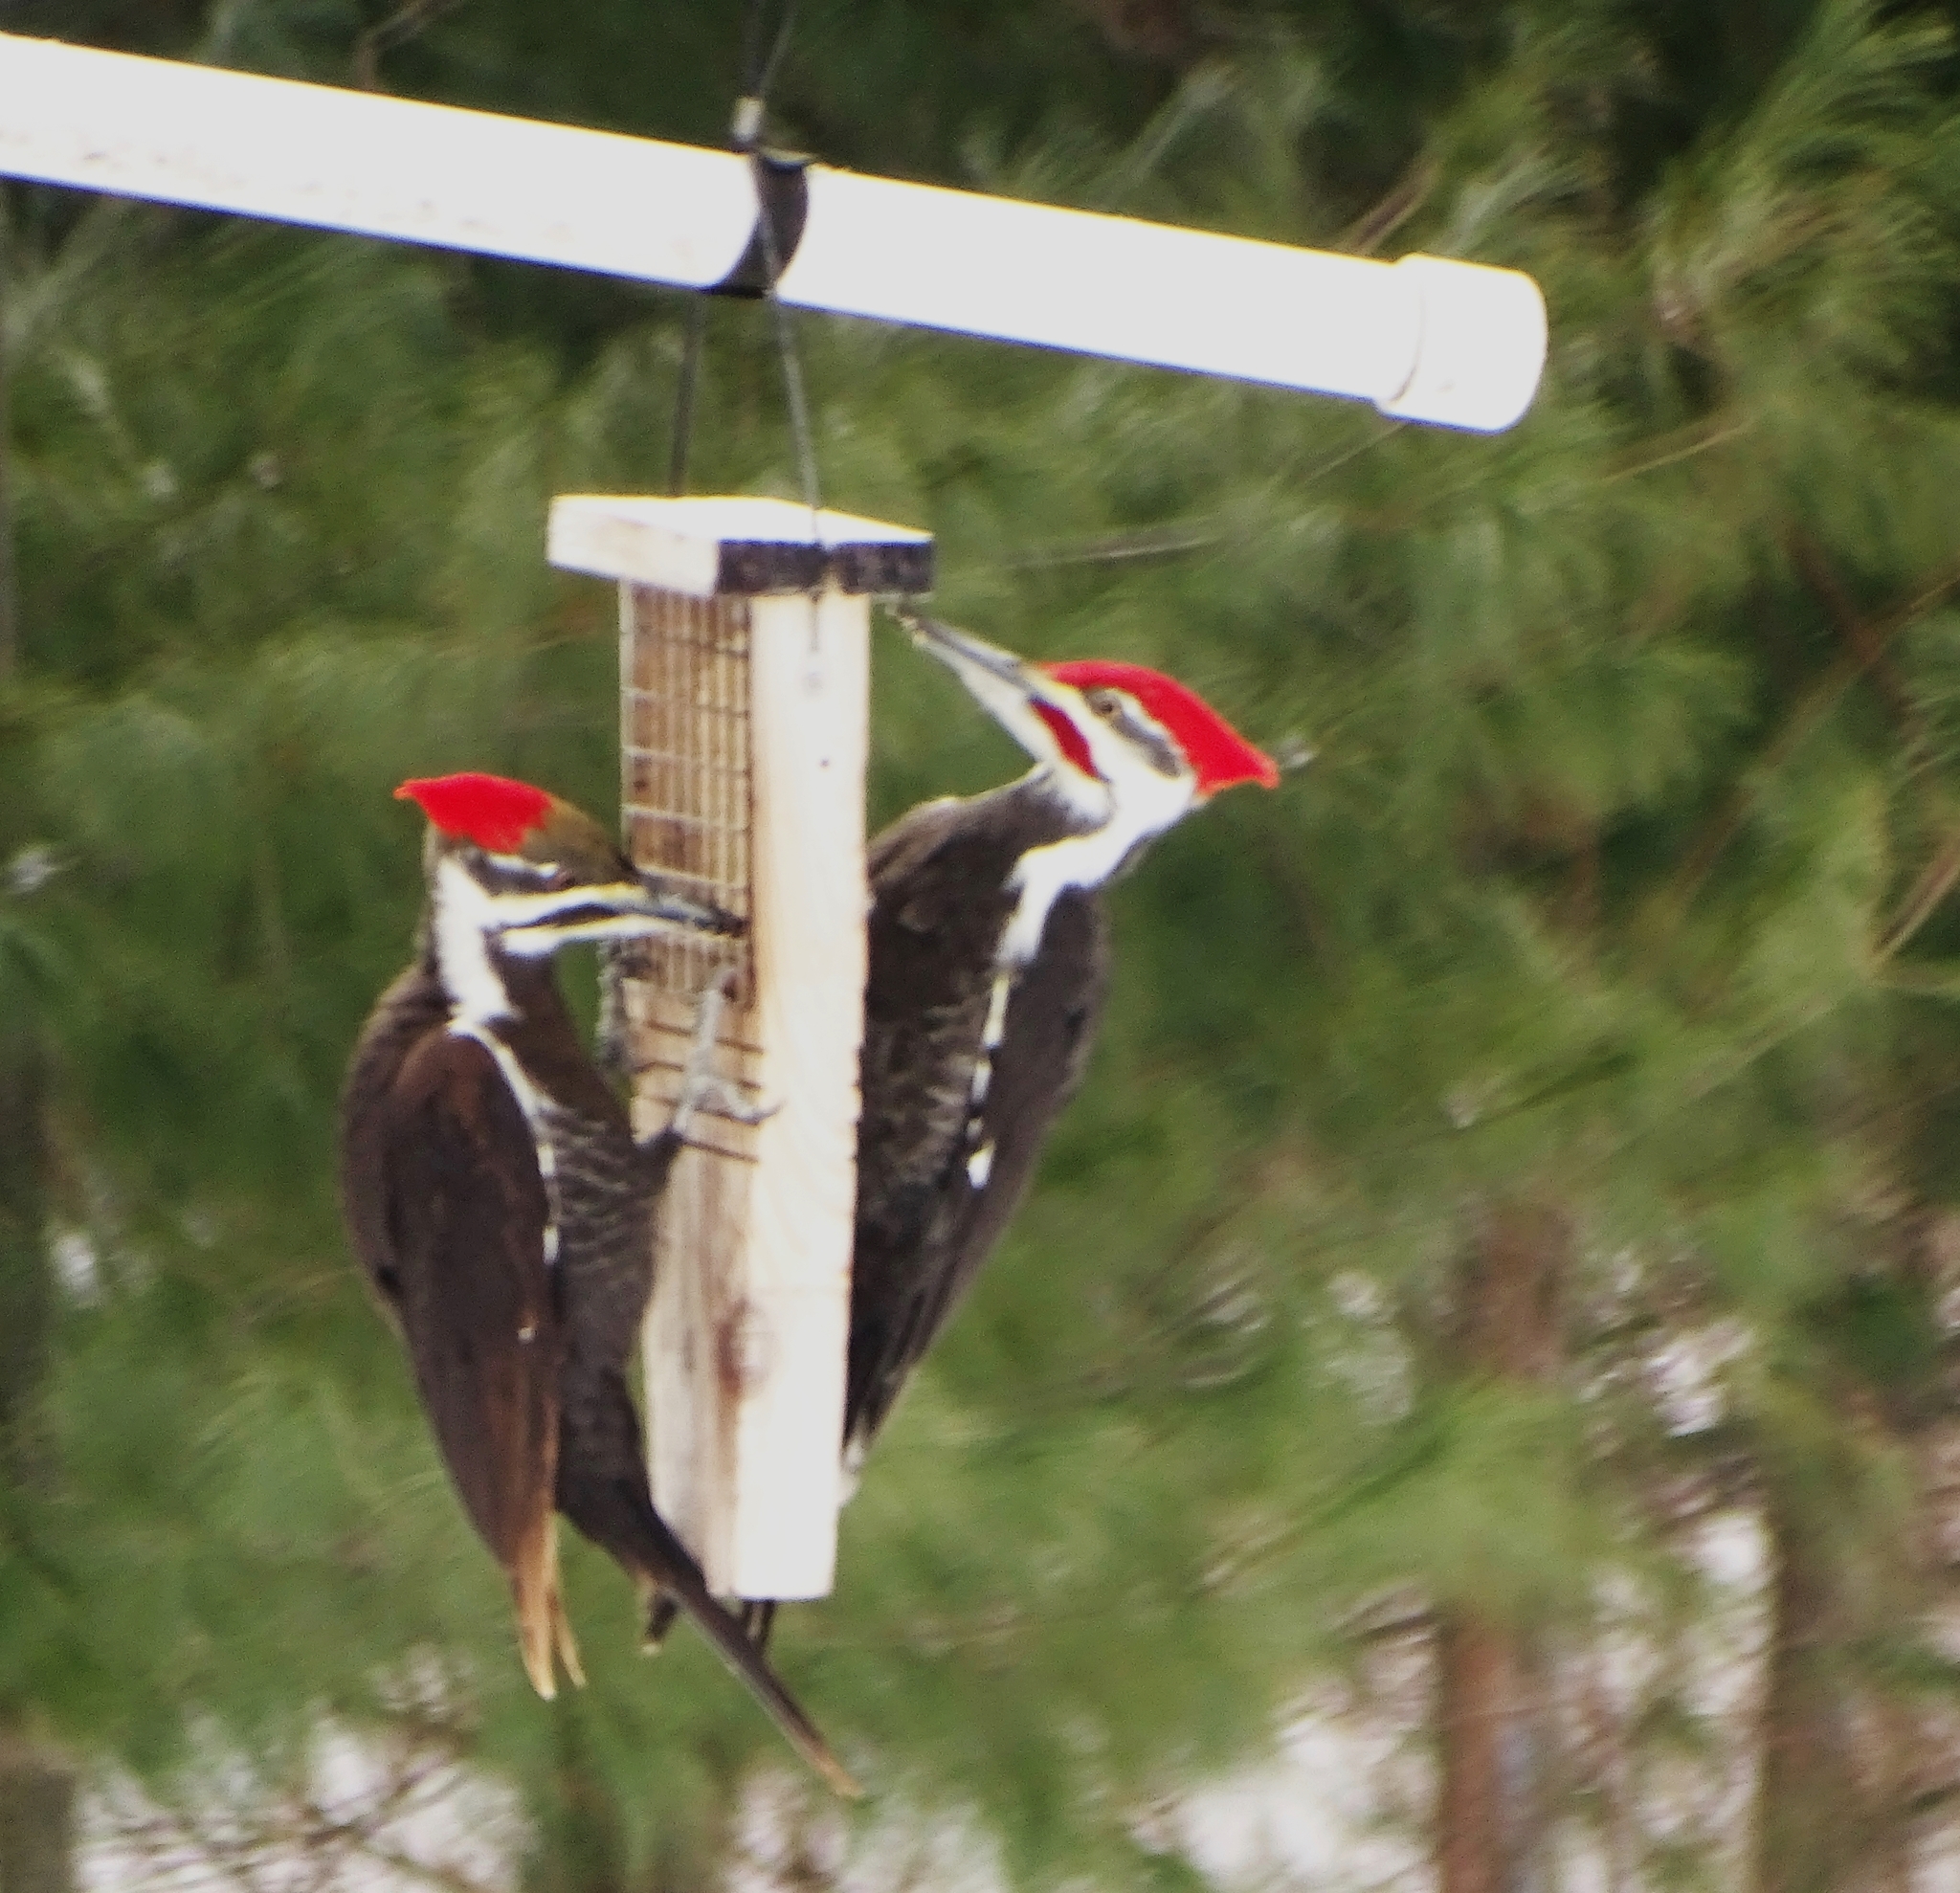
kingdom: Animalia
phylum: Chordata
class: Aves
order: Piciformes
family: Picidae
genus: Dryocopus
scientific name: Dryocopus pileatus
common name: Pileated woodpecker
